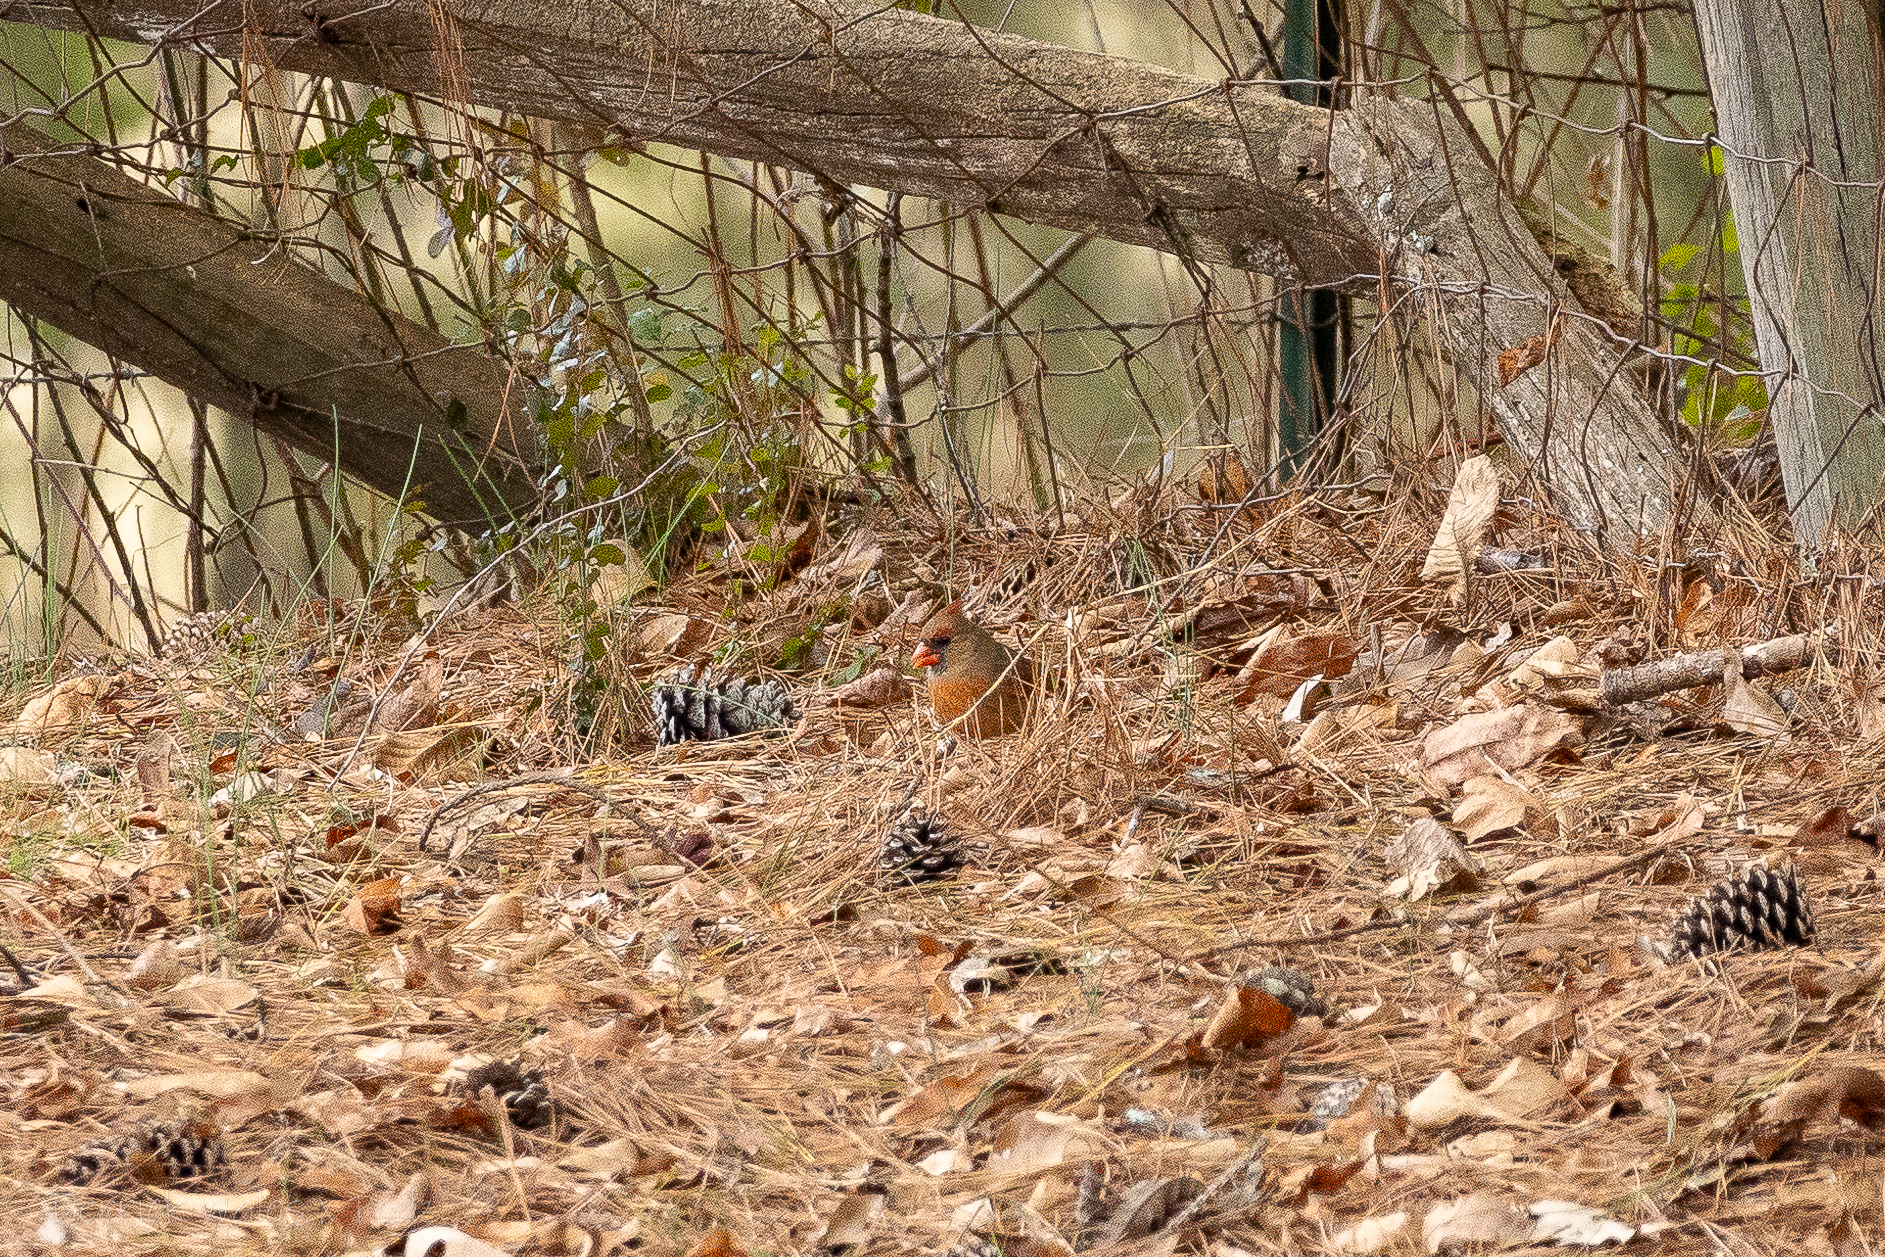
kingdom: Animalia
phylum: Chordata
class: Aves
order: Passeriformes
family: Cardinalidae
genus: Cardinalis
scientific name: Cardinalis cardinalis
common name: Northern cardinal
